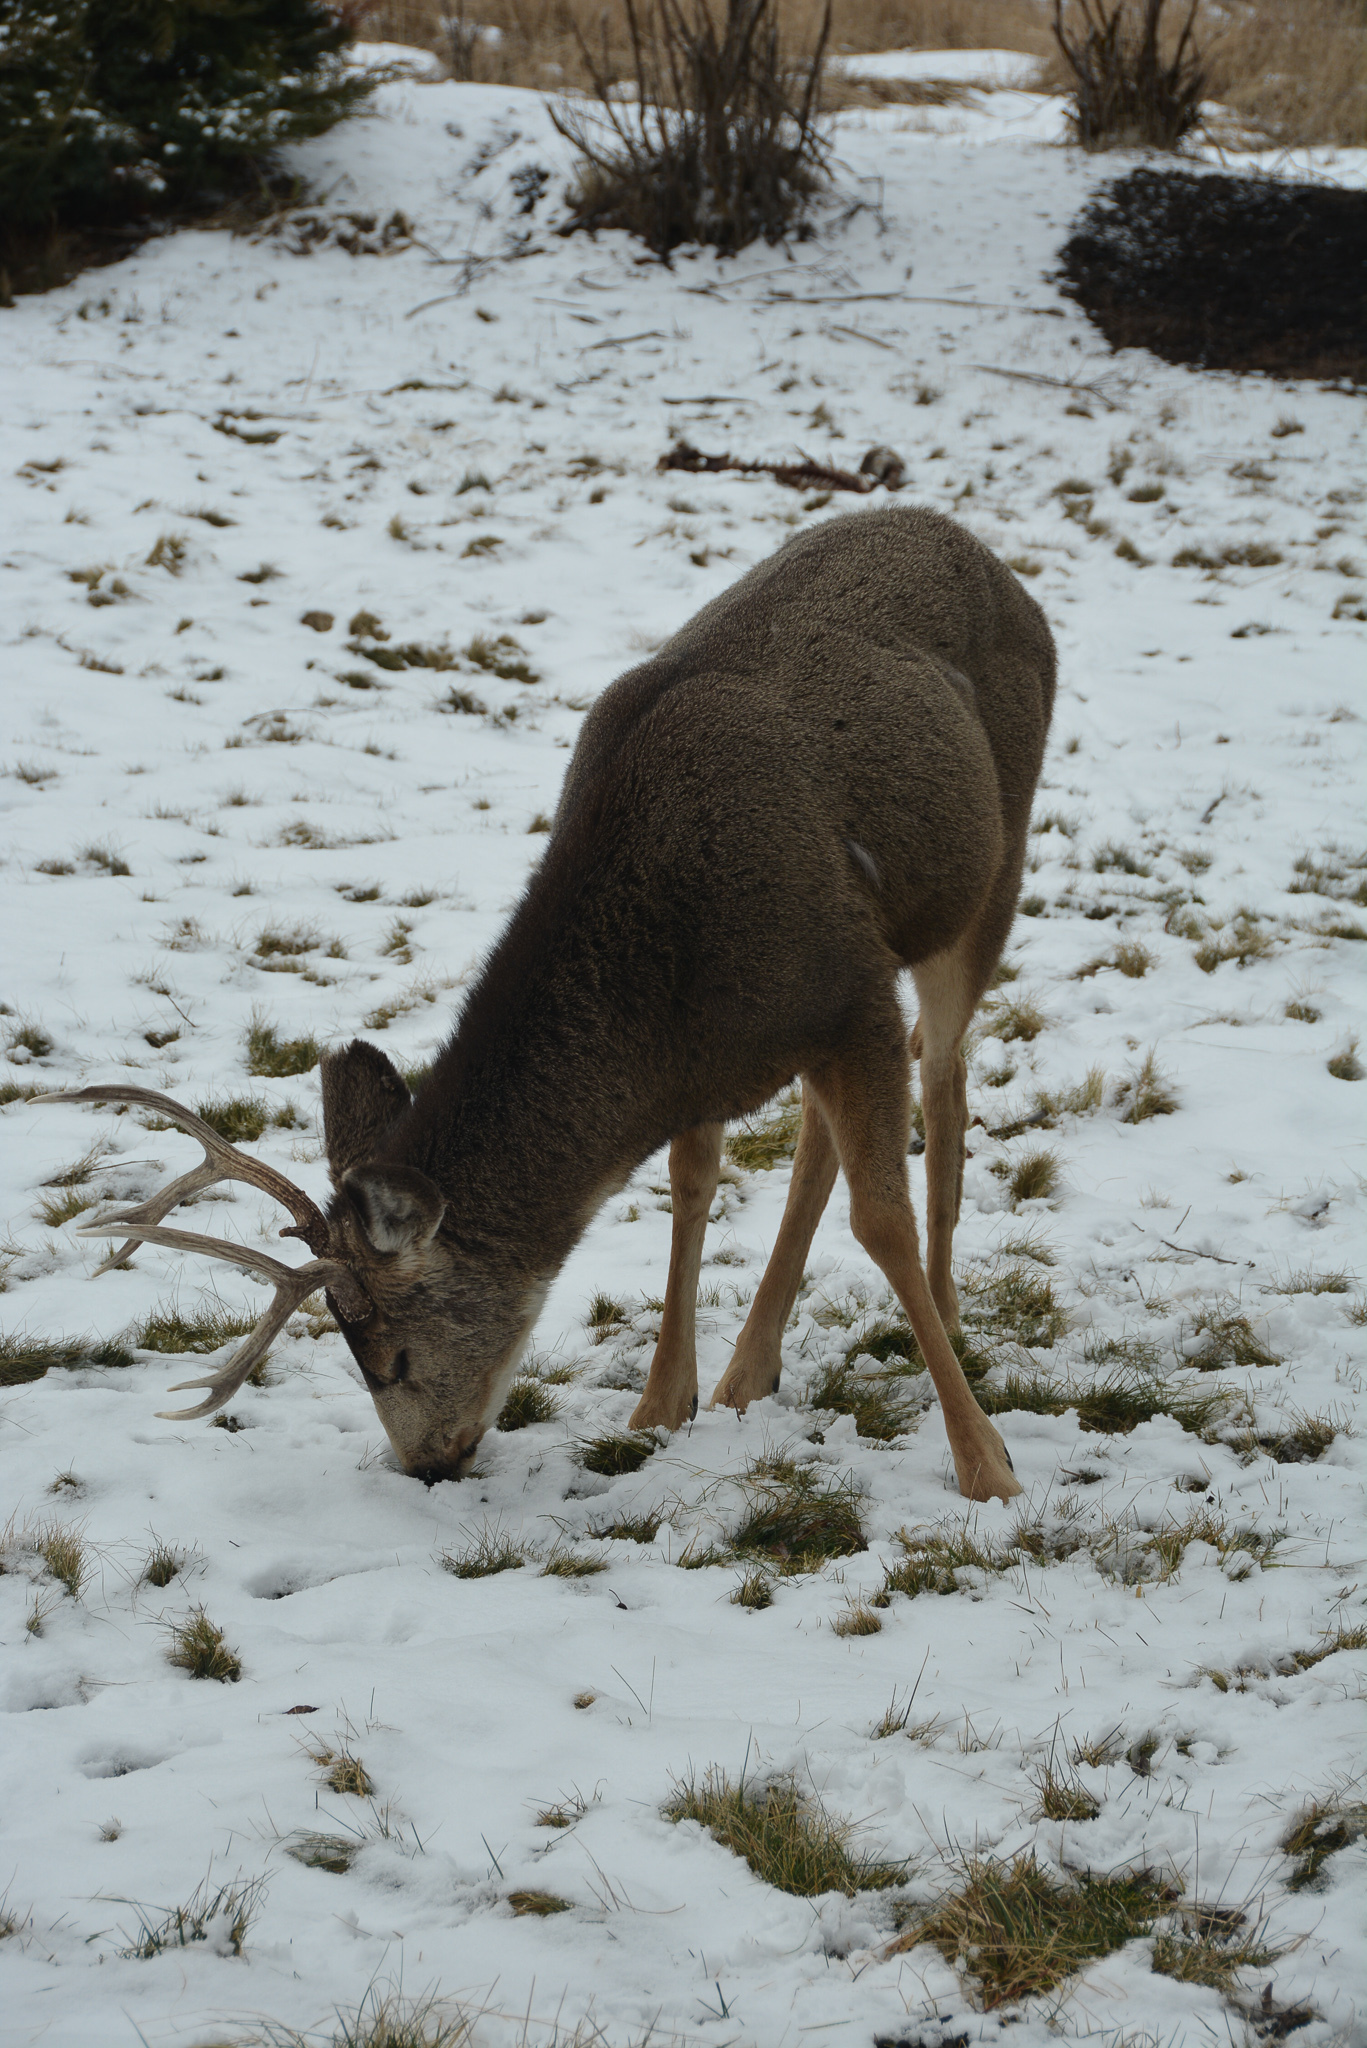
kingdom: Animalia
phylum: Chordata
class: Mammalia
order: Artiodactyla
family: Cervidae
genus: Odocoileus
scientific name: Odocoileus hemionus
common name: Mule deer
